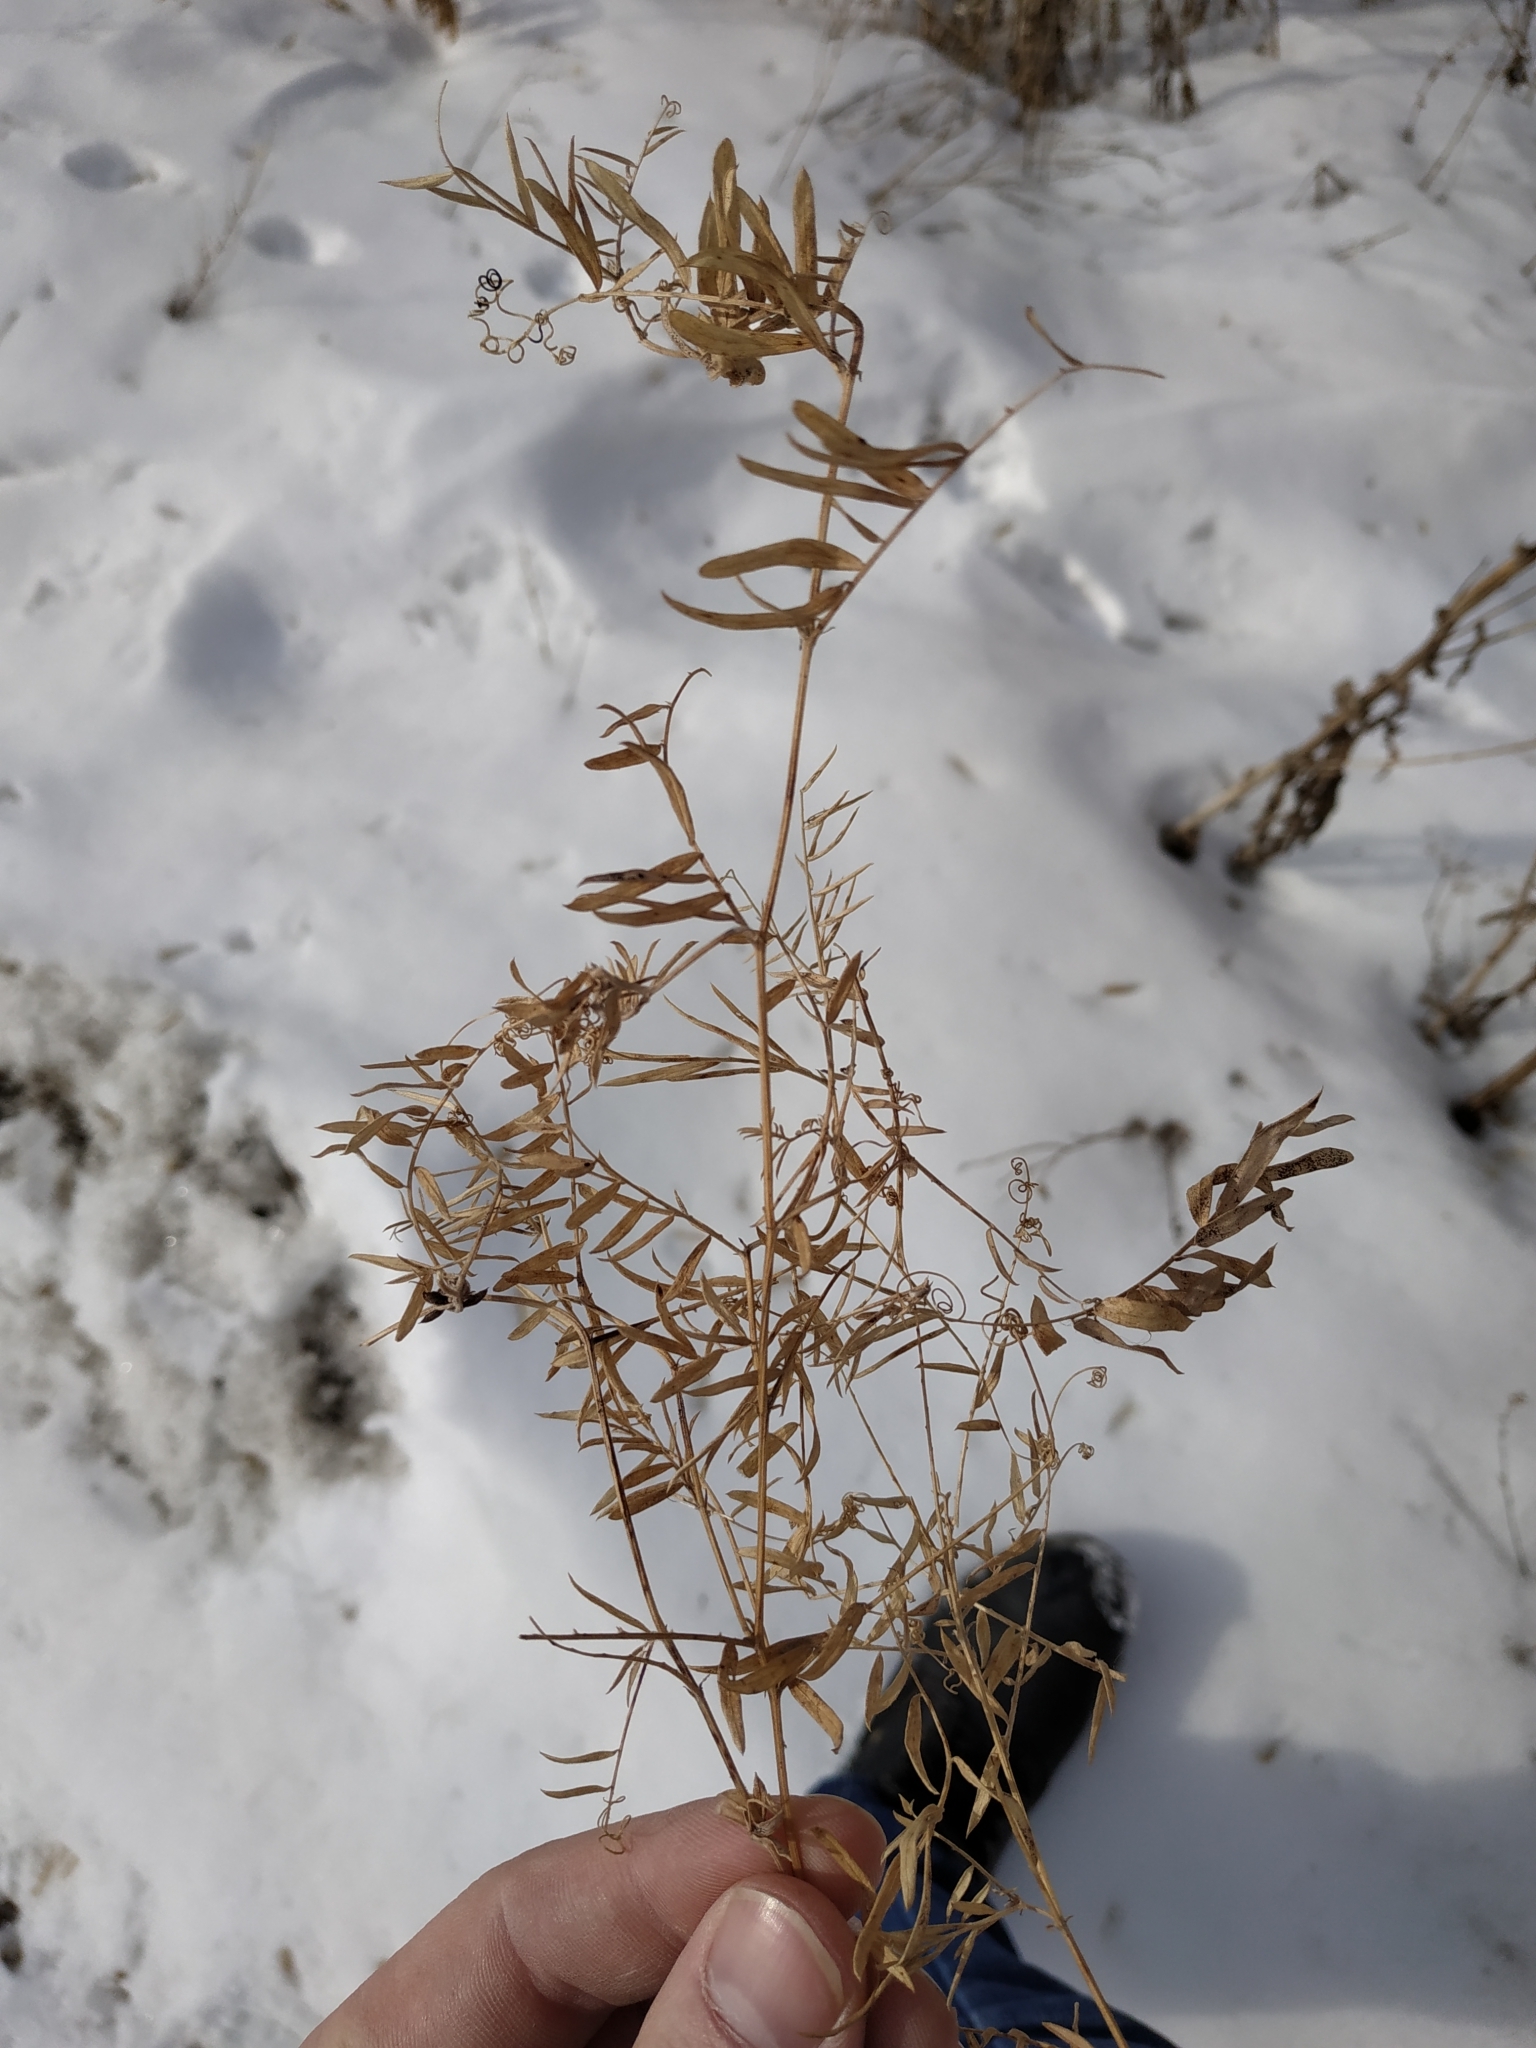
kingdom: Plantae
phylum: Tracheophyta
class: Magnoliopsida
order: Fabales
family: Fabaceae
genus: Vicia
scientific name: Vicia cracca
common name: Bird vetch
